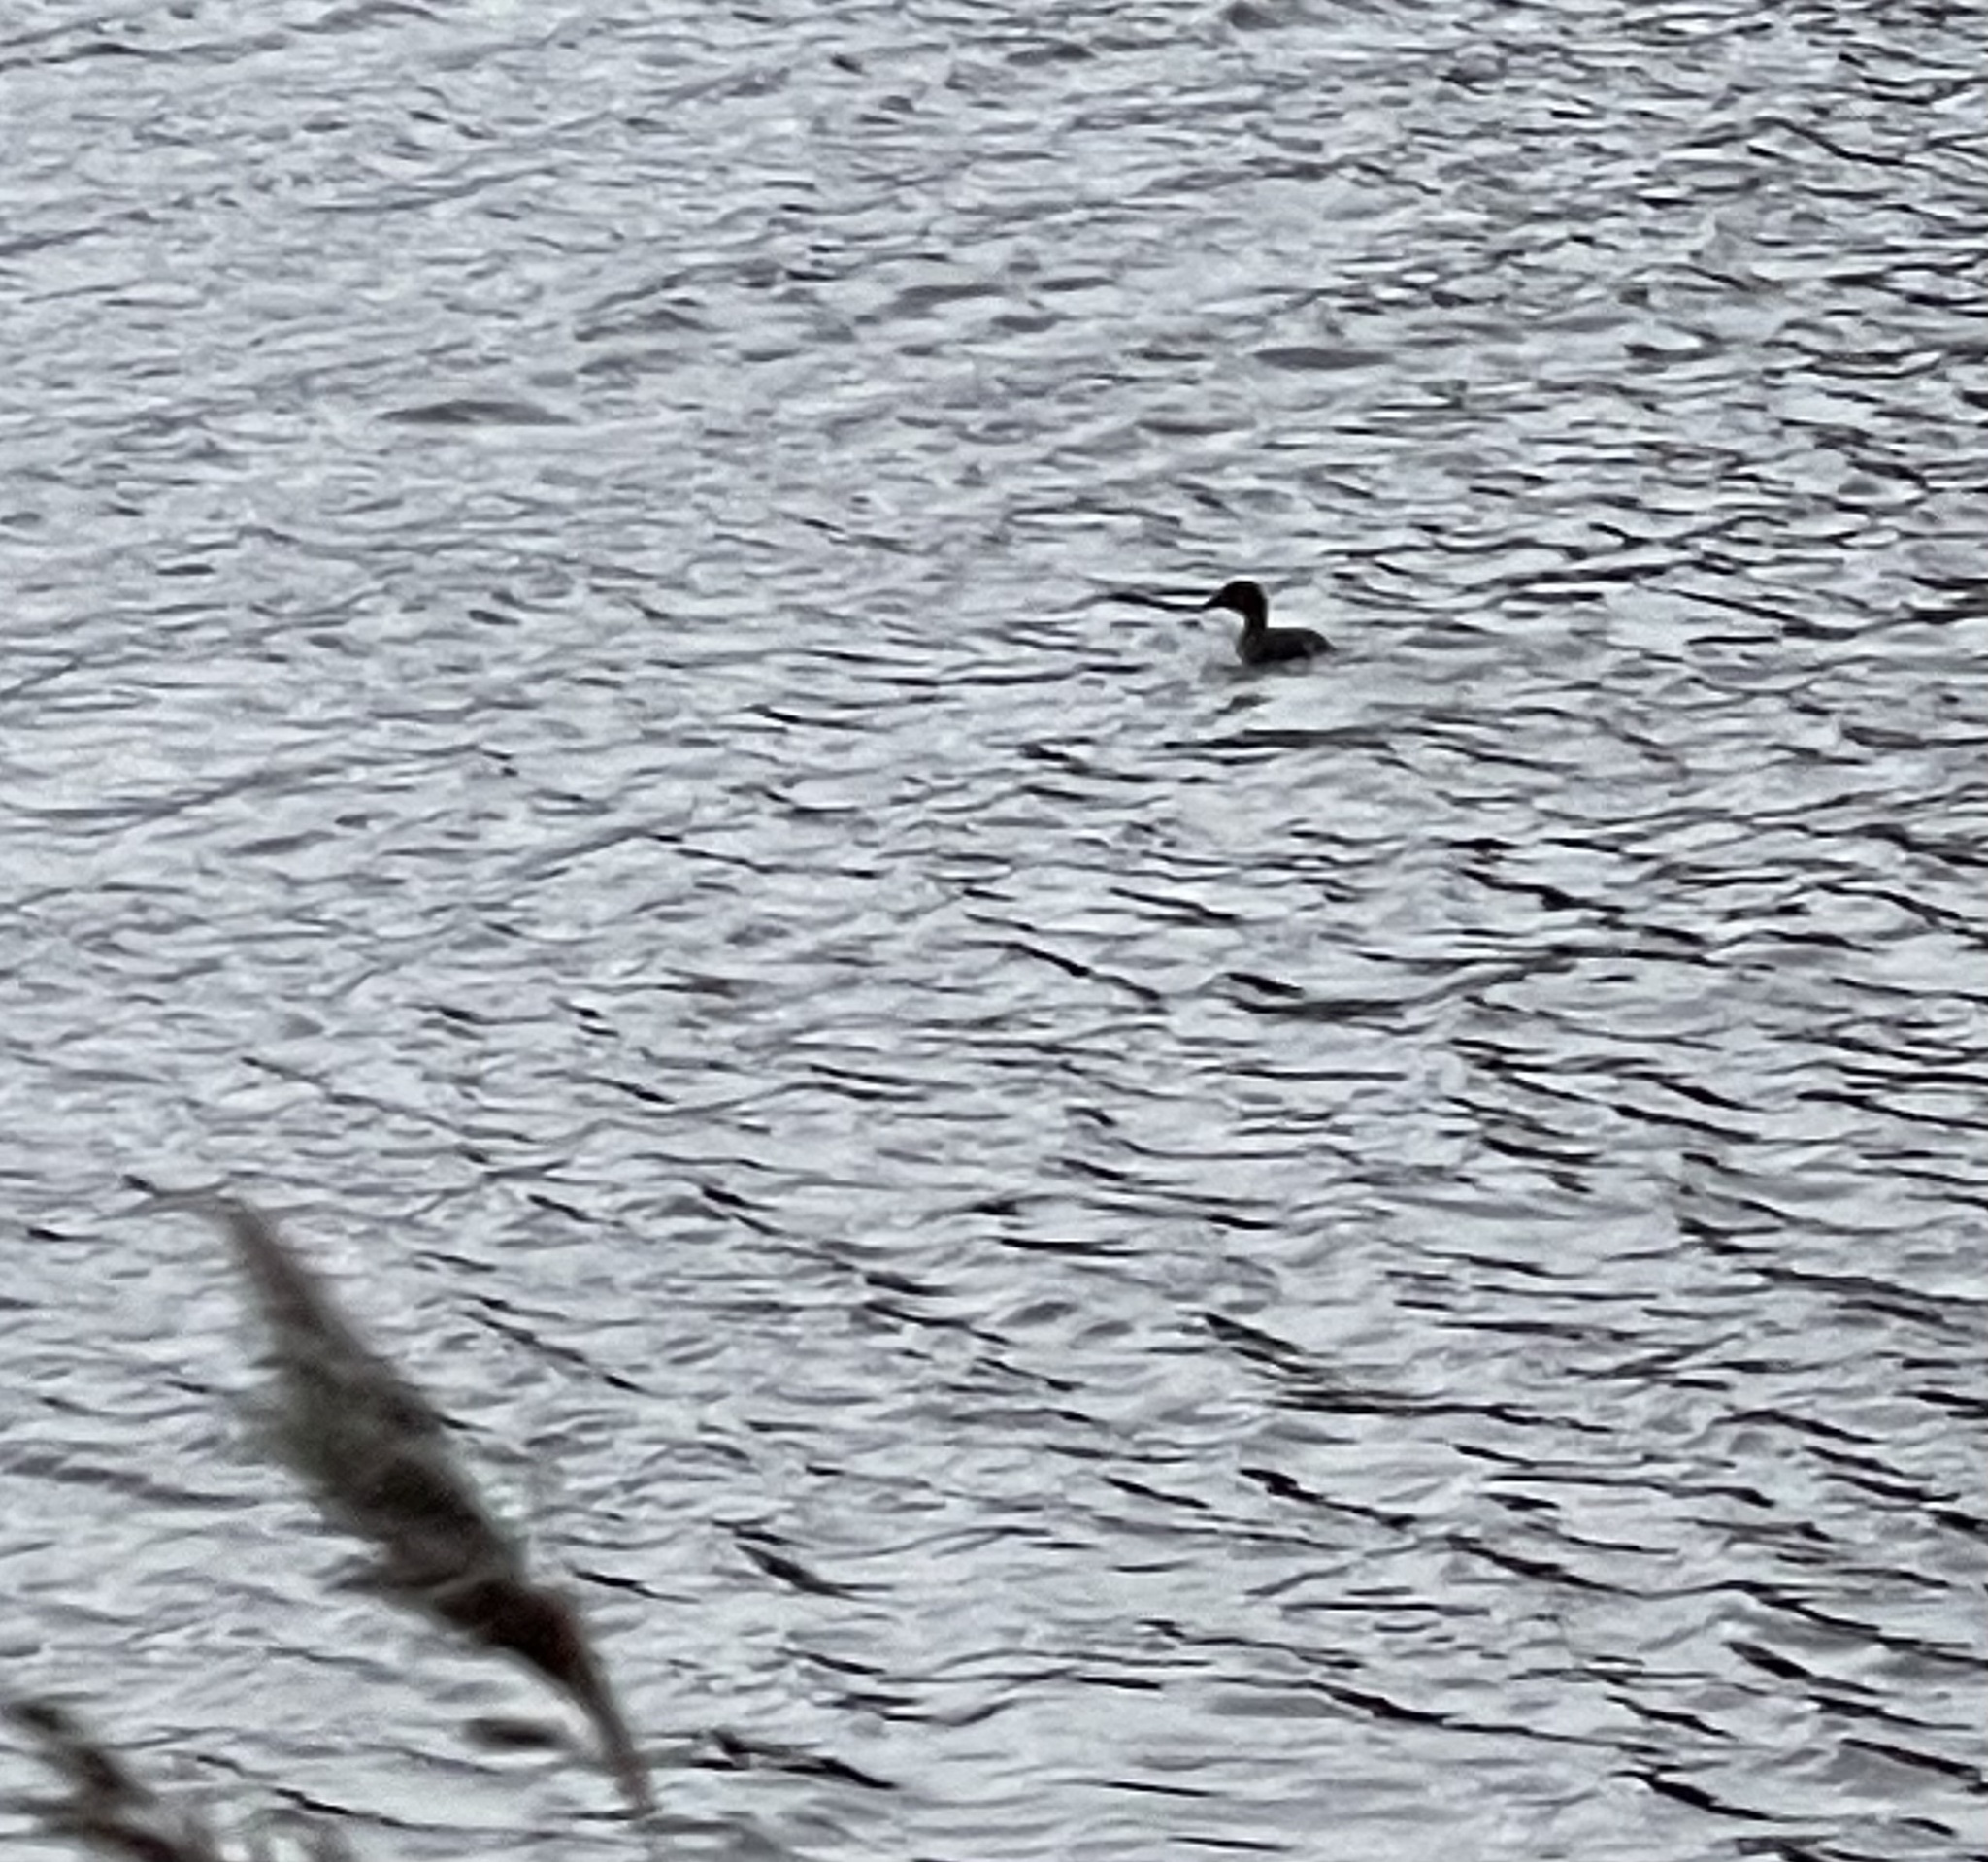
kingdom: Animalia
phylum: Chordata
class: Aves
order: Podicipediformes
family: Podicipedidae
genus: Tachybaptus
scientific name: Tachybaptus ruficollis
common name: Little grebe
